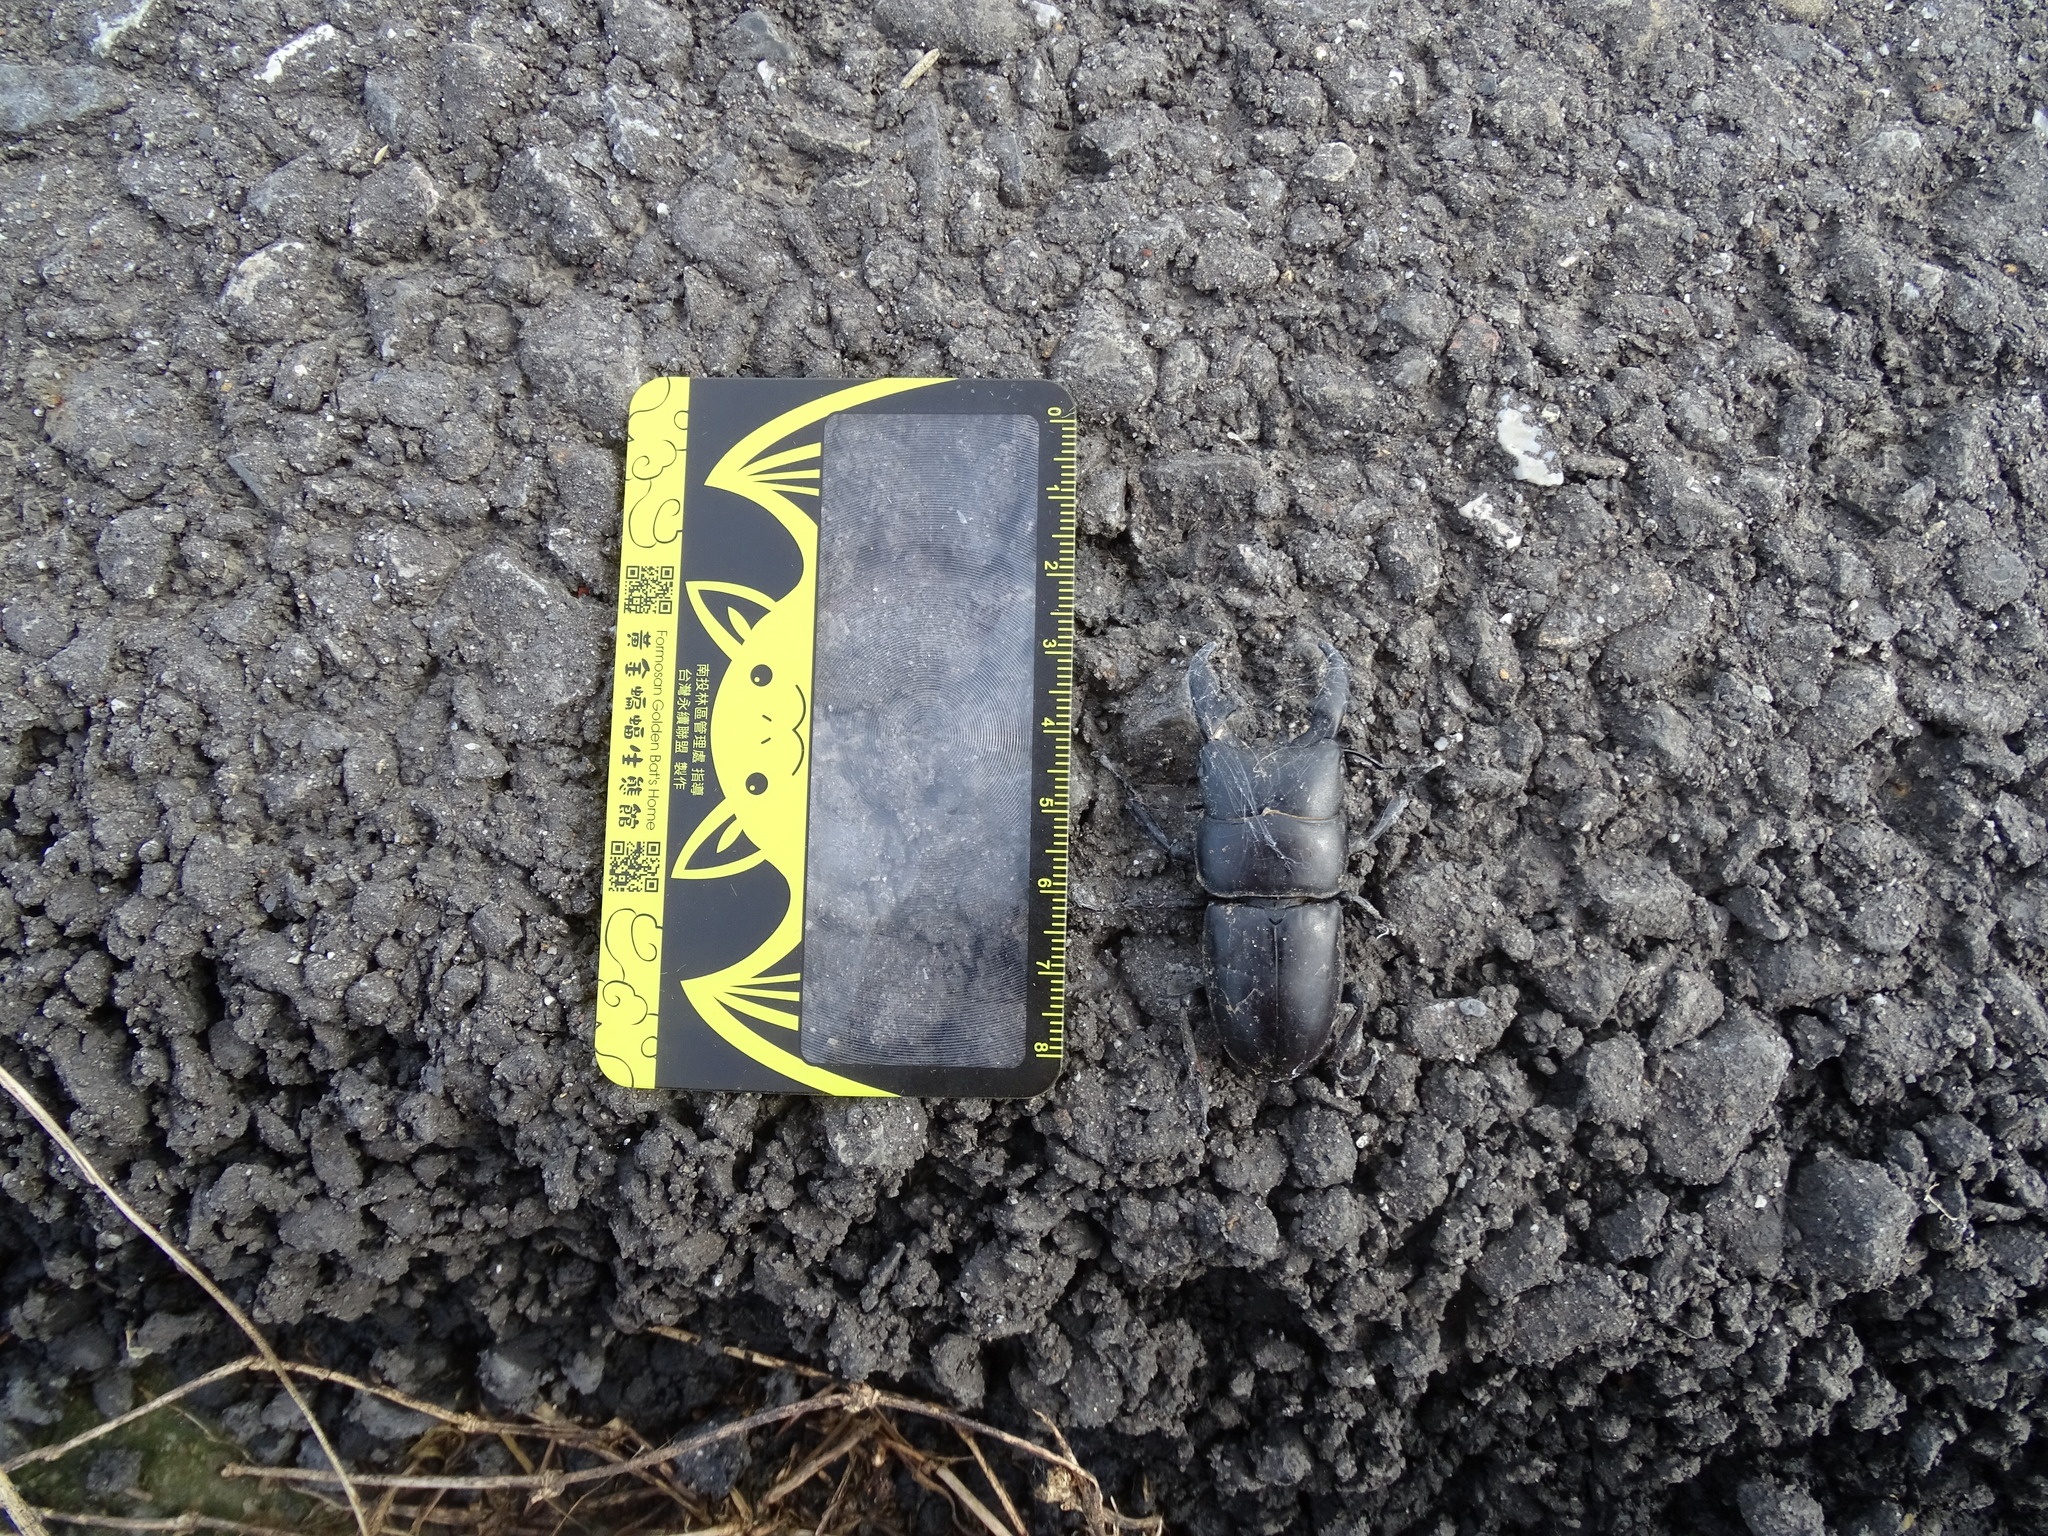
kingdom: Animalia
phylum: Arthropoda
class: Insecta
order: Coleoptera
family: Lucanidae
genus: Serrognathus
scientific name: Serrognathus titanus
